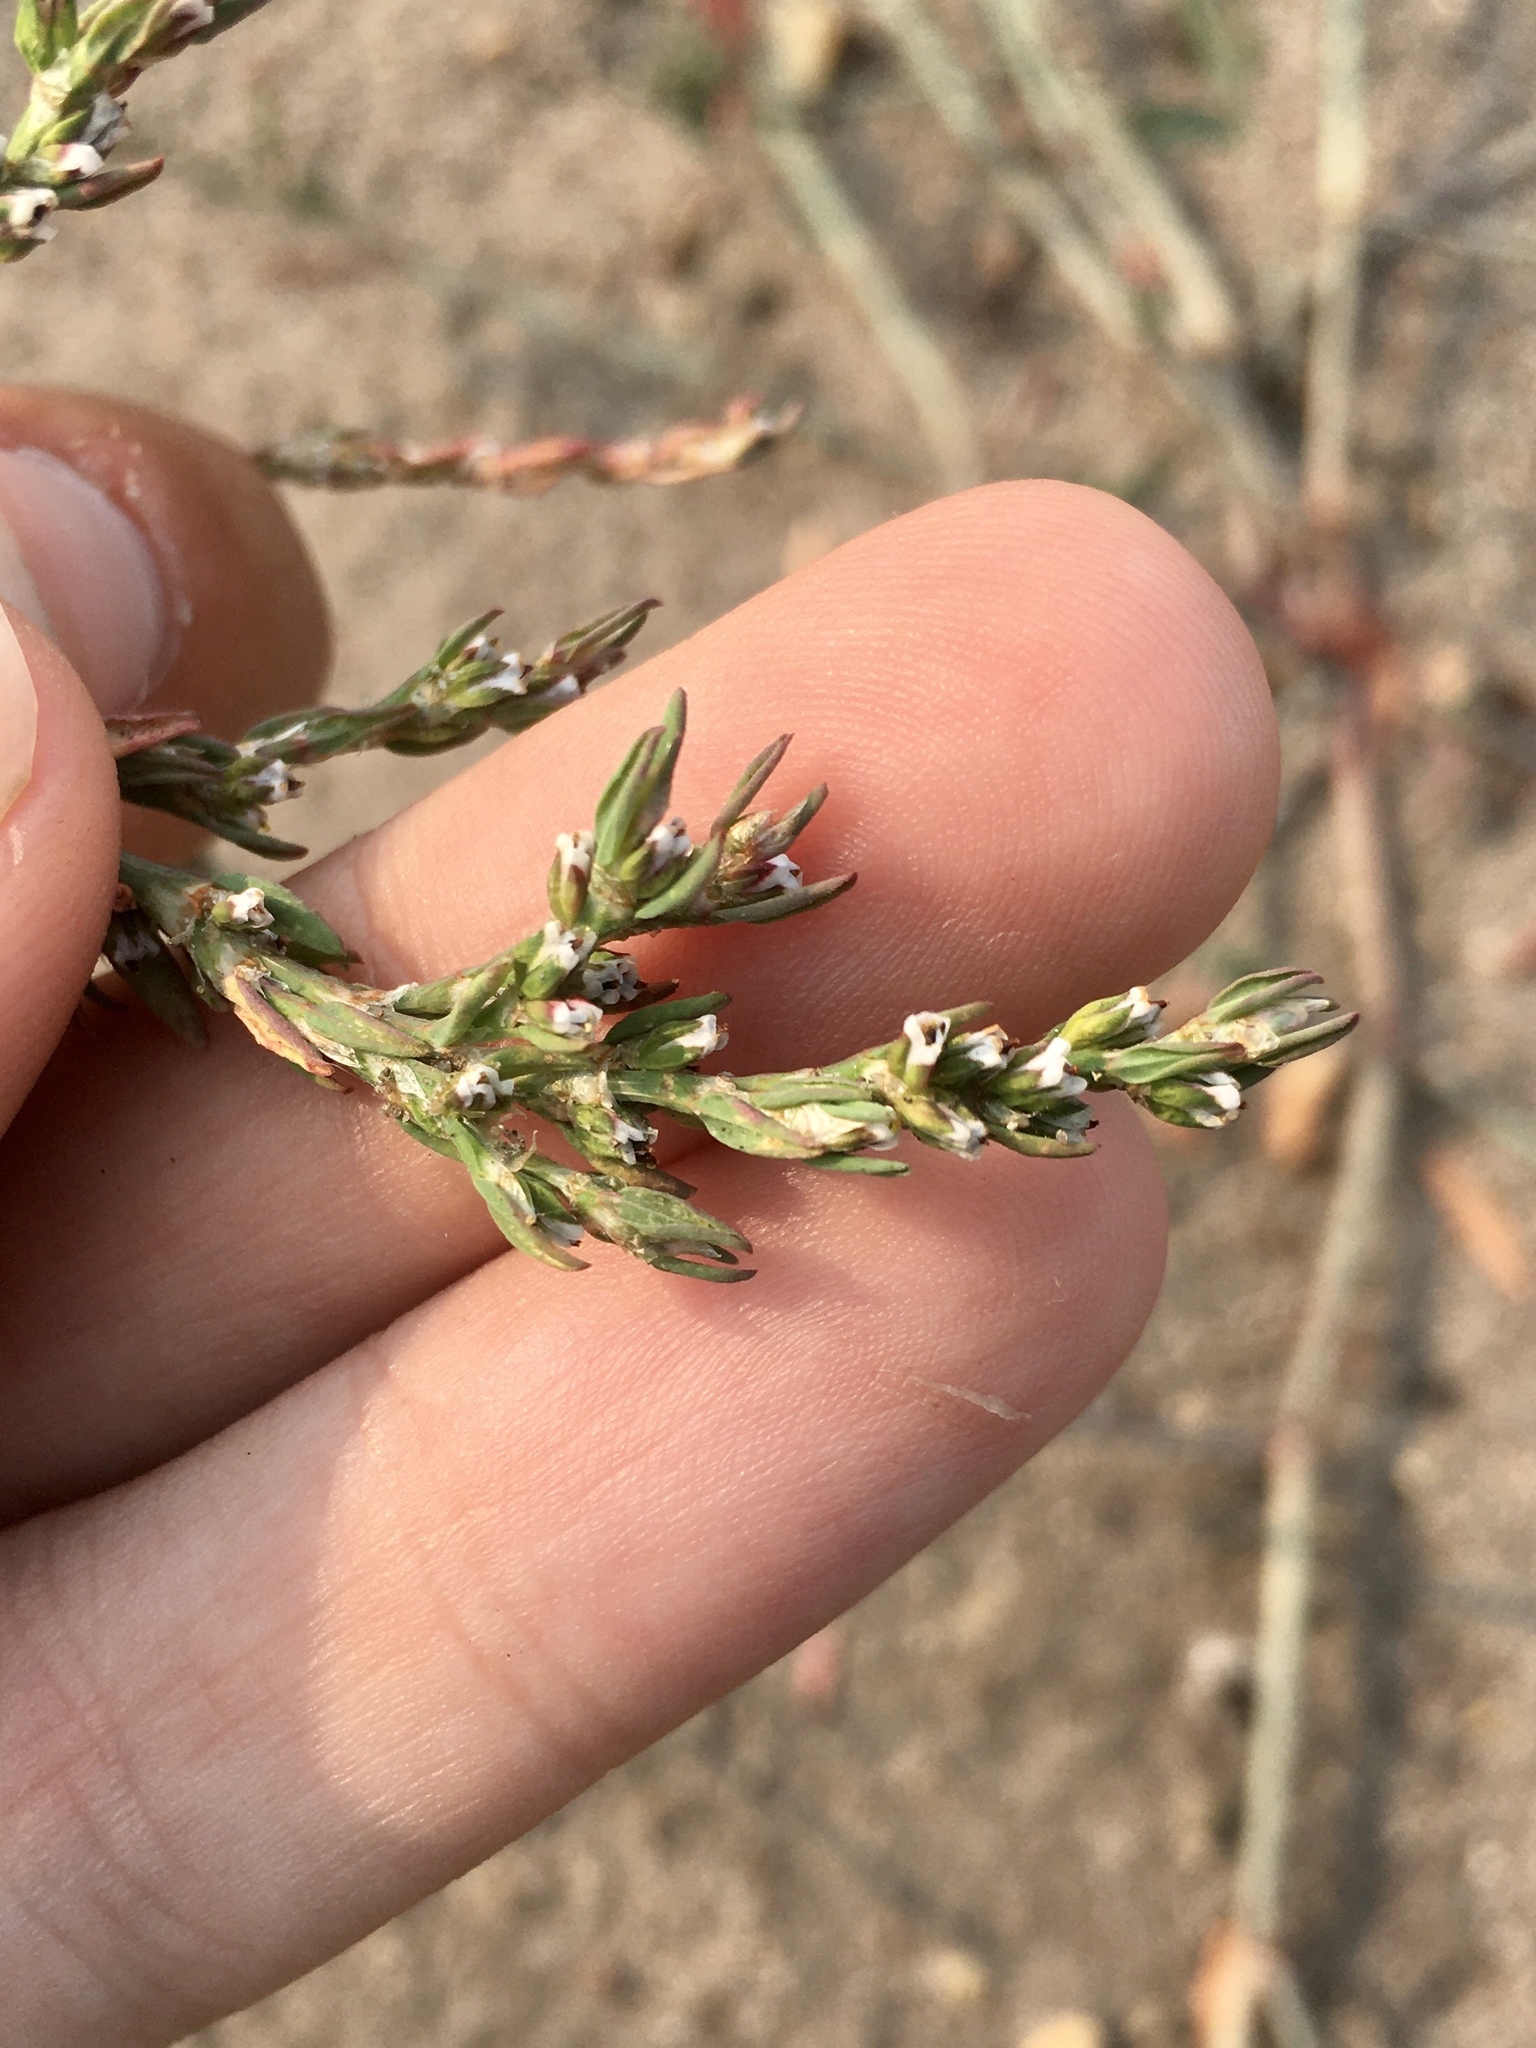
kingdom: Plantae
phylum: Tracheophyta
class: Magnoliopsida
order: Caryophyllales
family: Polygonaceae
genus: Polygonum
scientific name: Polygonum aviculare
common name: Prostrate knotweed
